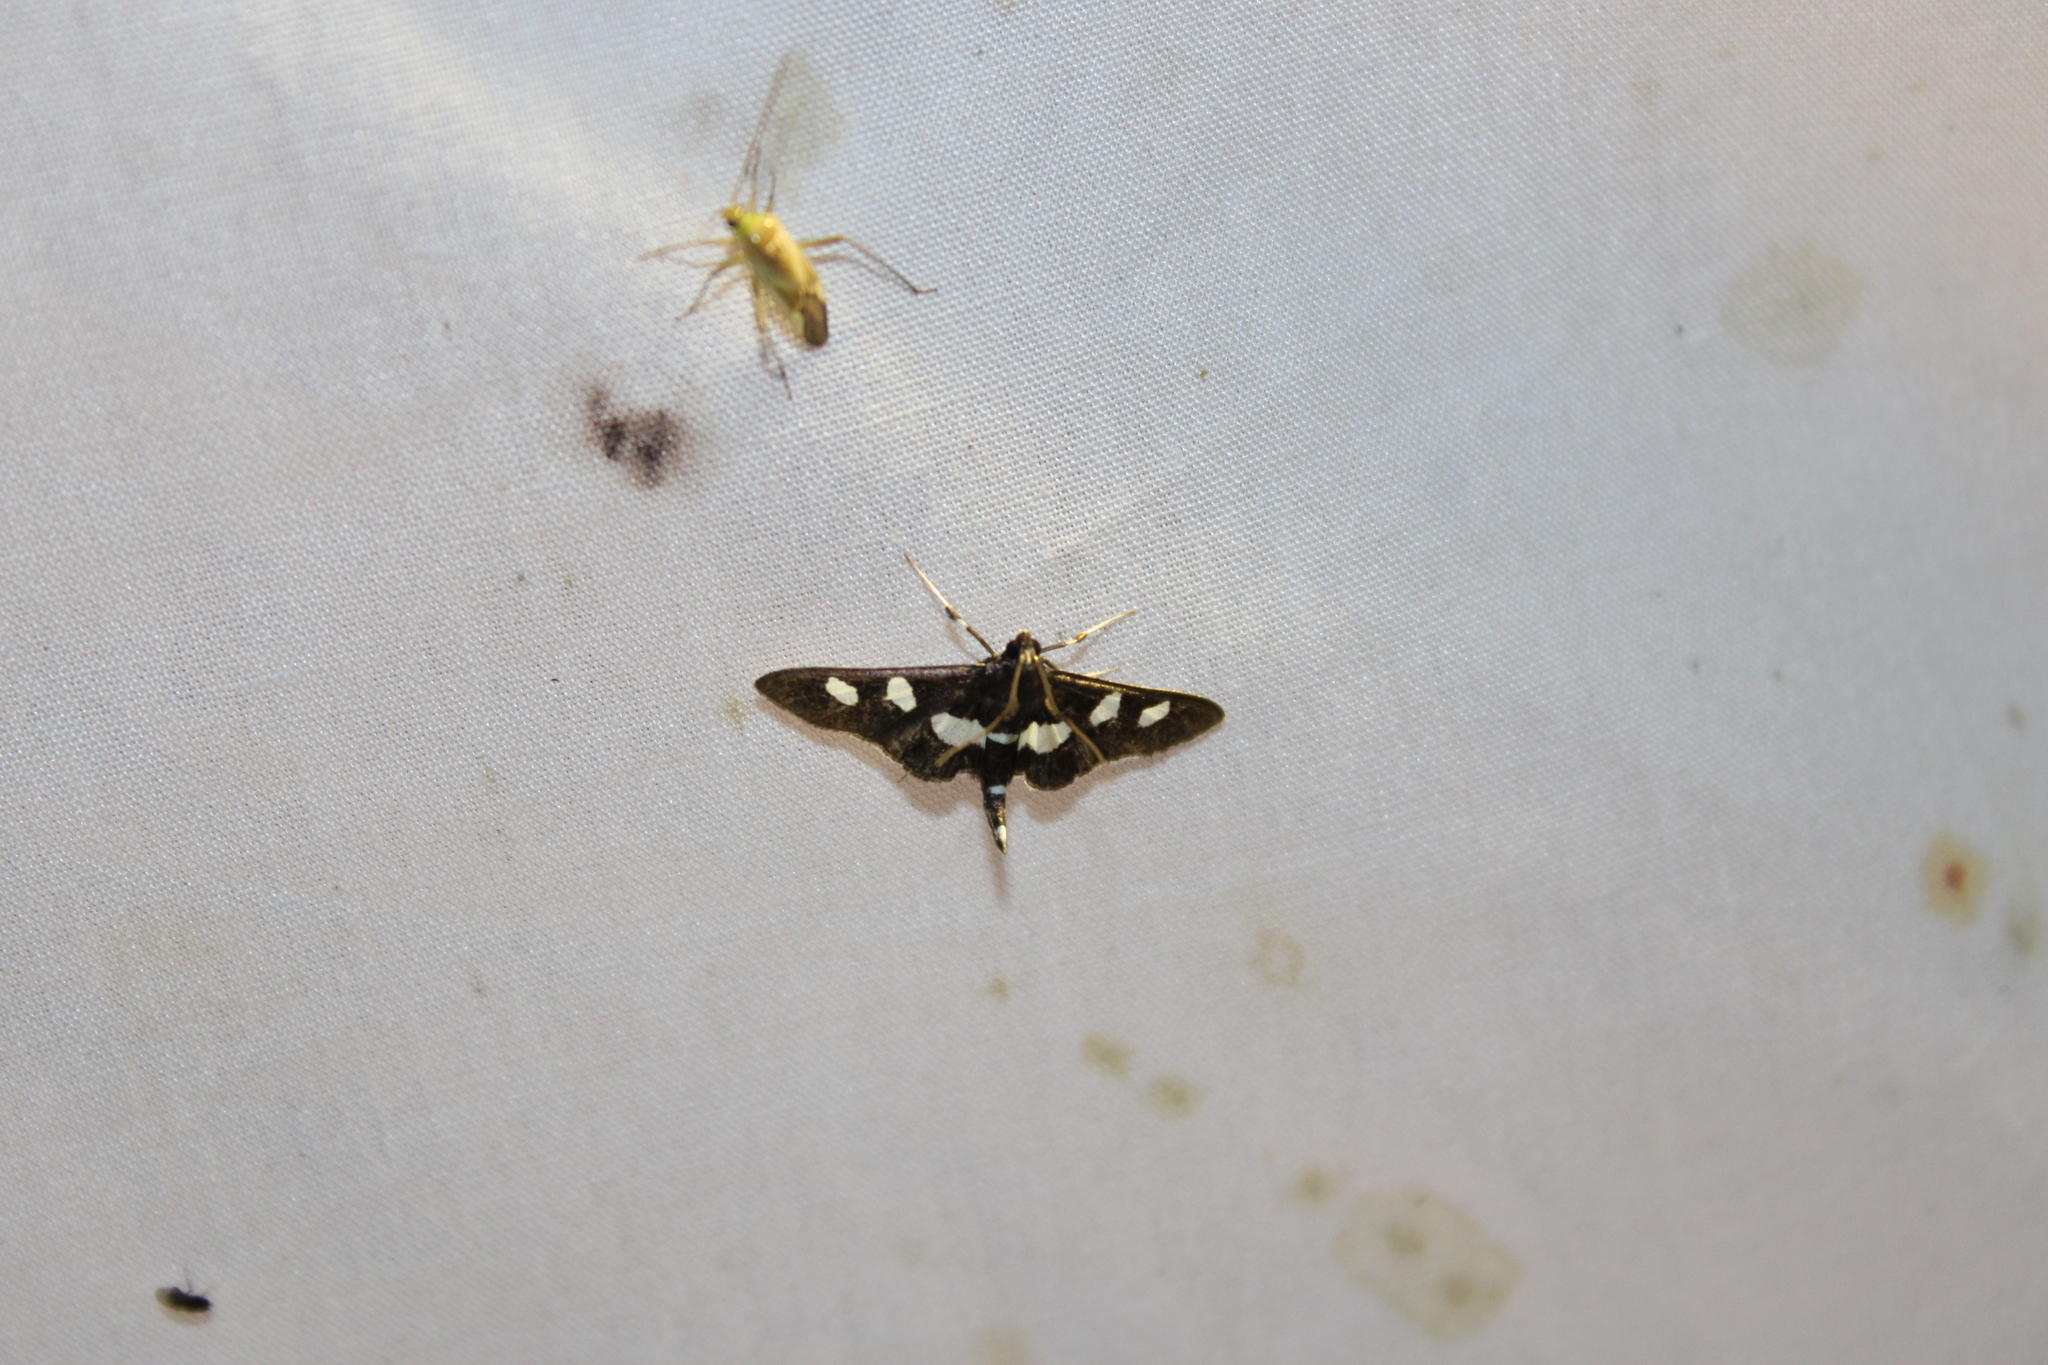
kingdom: Animalia
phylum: Arthropoda
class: Insecta
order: Lepidoptera
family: Crambidae
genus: Desmia
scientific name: Desmia
